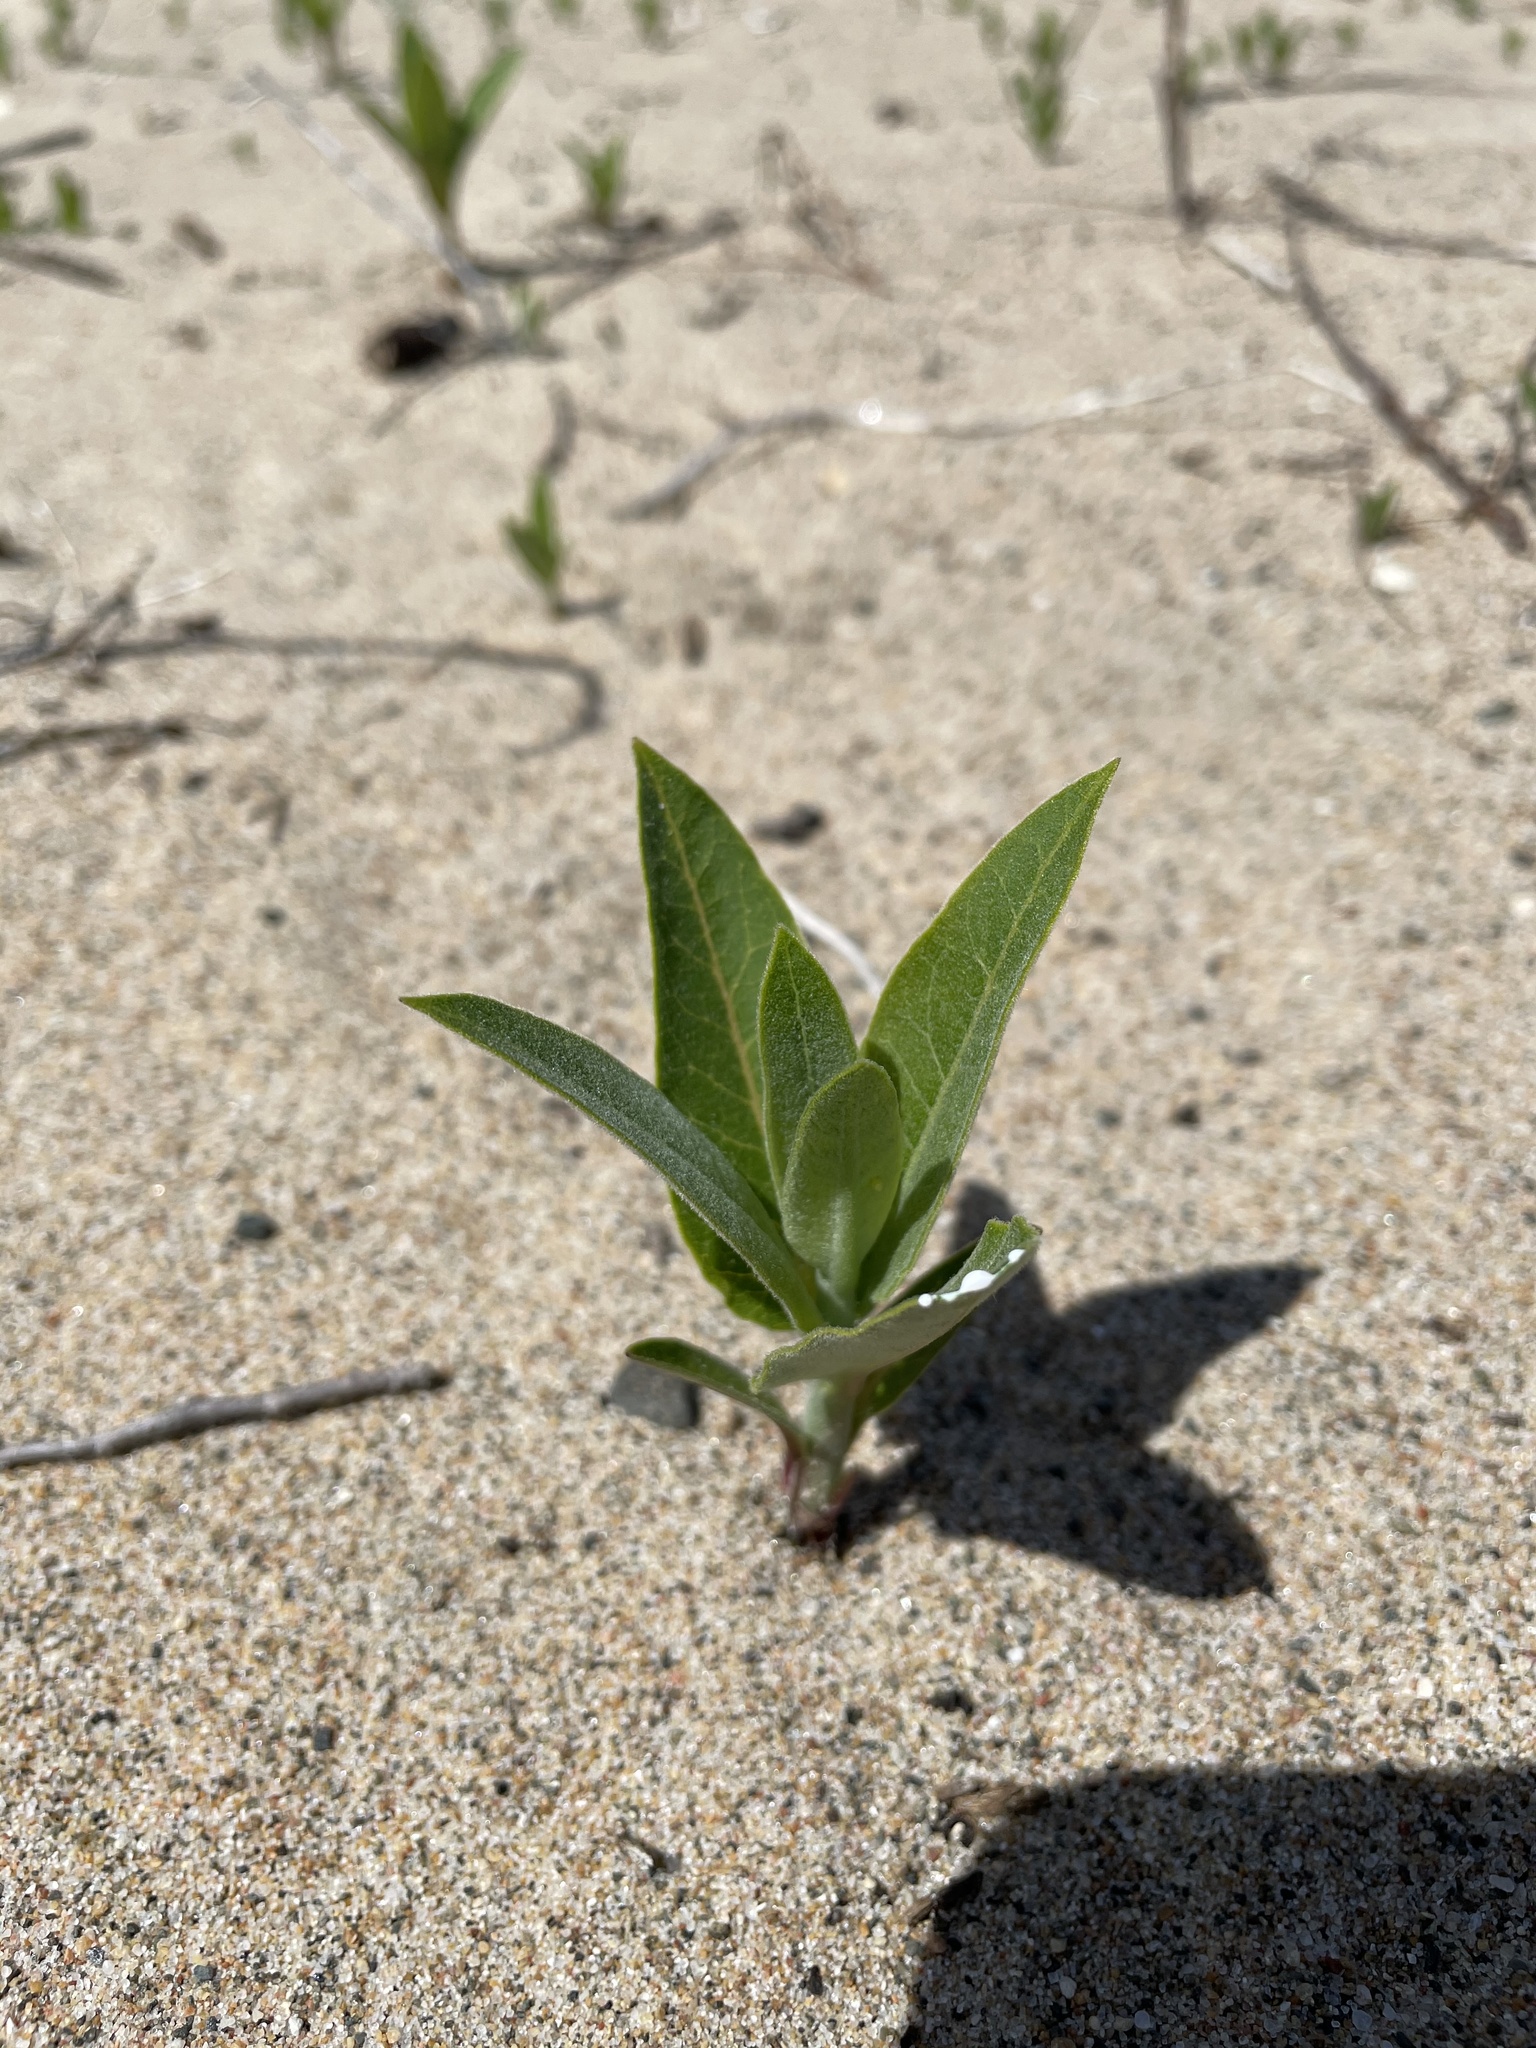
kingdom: Plantae
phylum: Tracheophyta
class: Magnoliopsida
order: Gentianales
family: Apocynaceae
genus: Asclepias
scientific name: Asclepias syriaca
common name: Common milkweed
